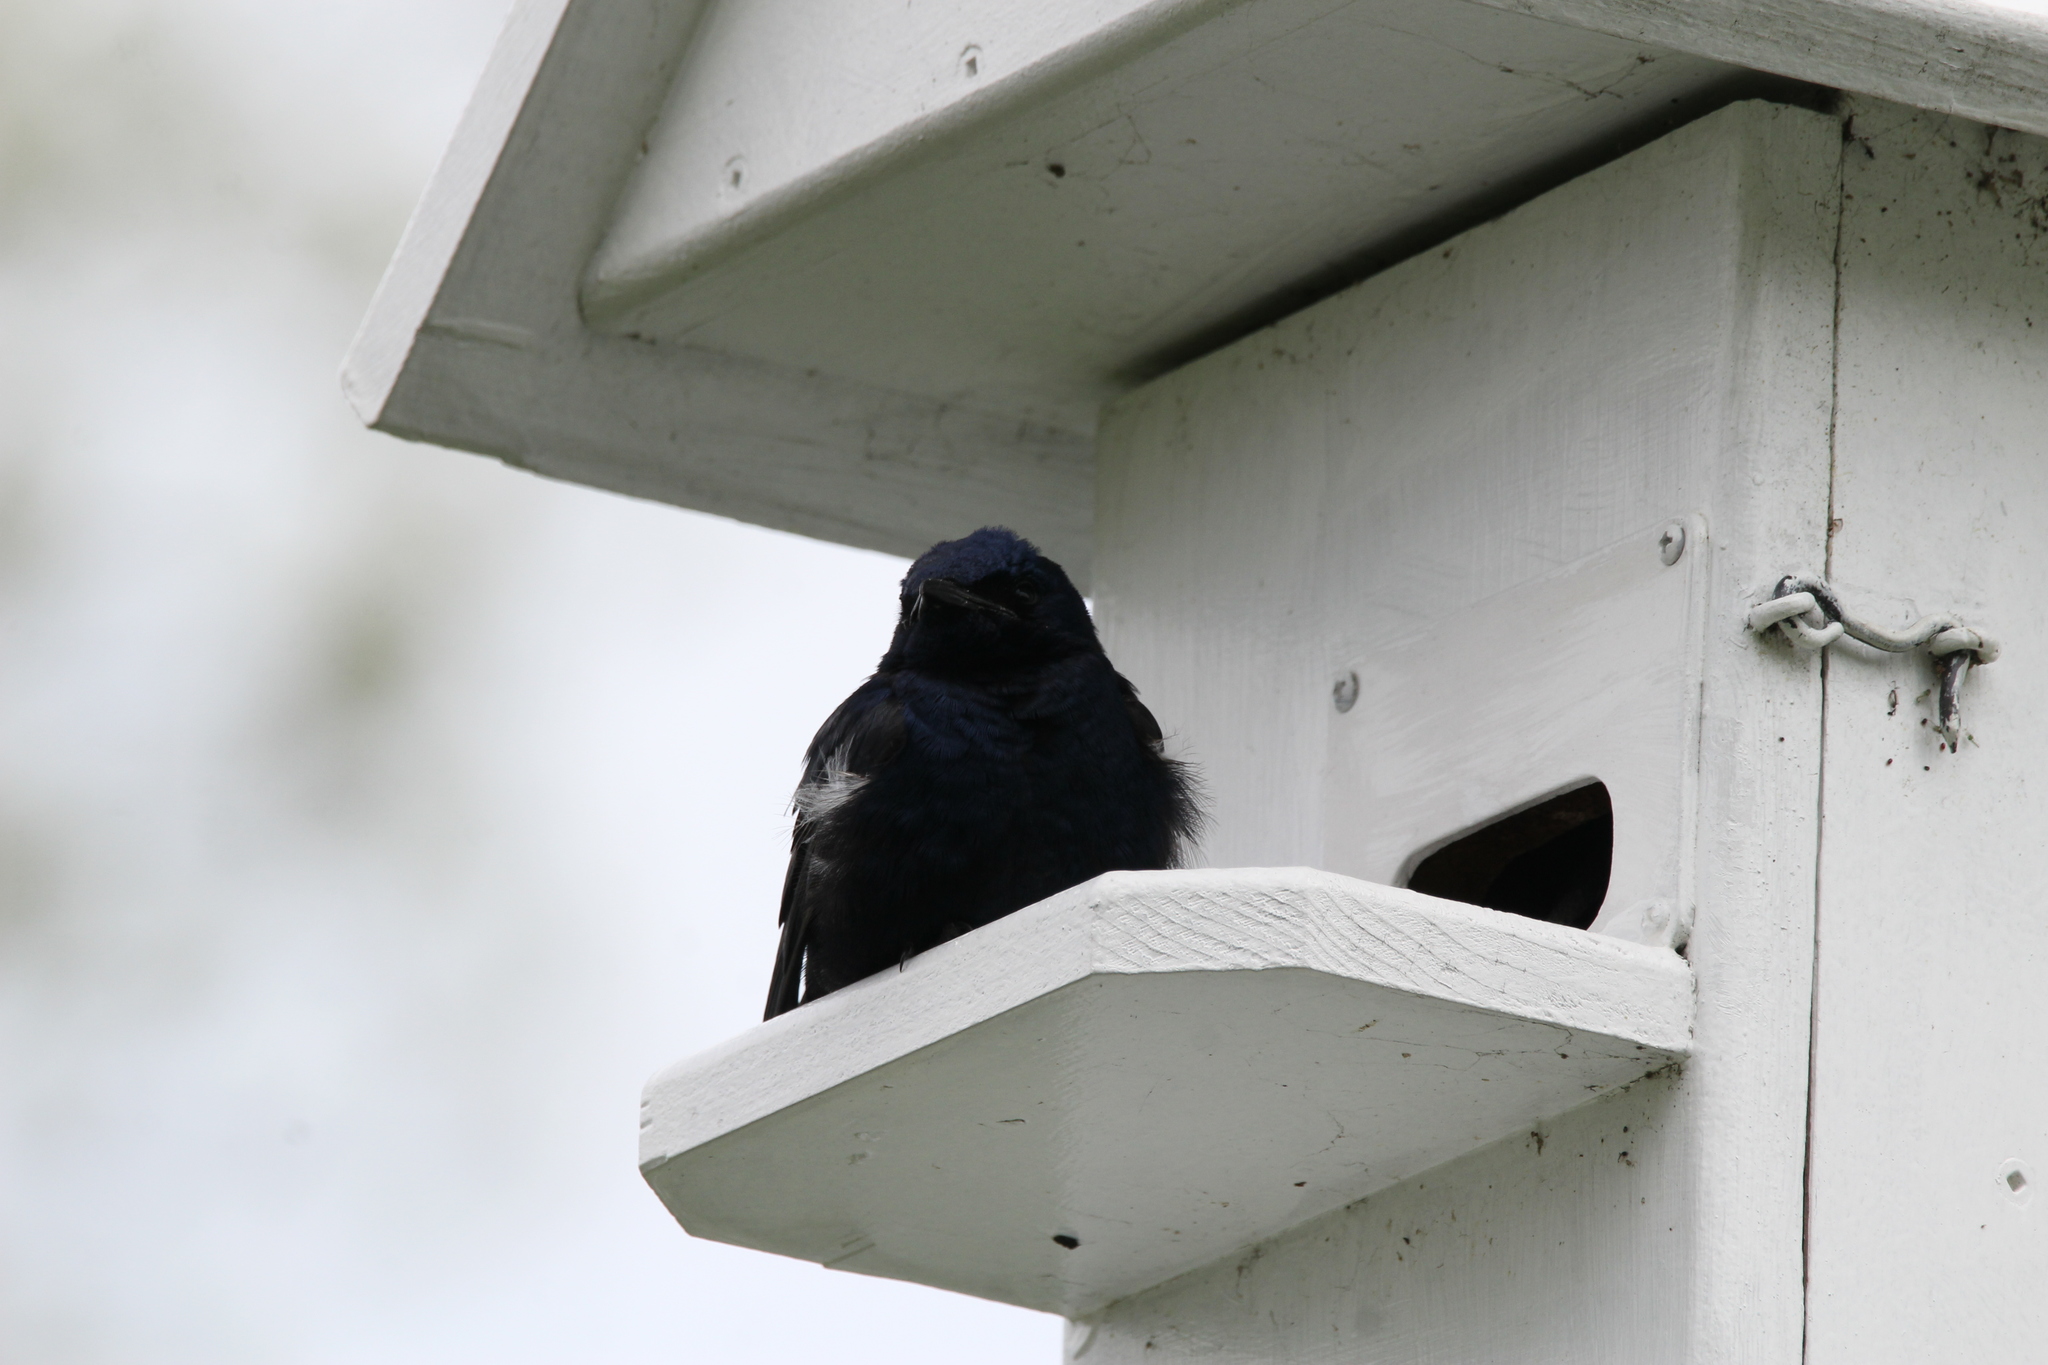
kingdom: Animalia
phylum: Chordata
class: Aves
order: Passeriformes
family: Hirundinidae
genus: Progne
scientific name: Progne subis
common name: Purple martin
